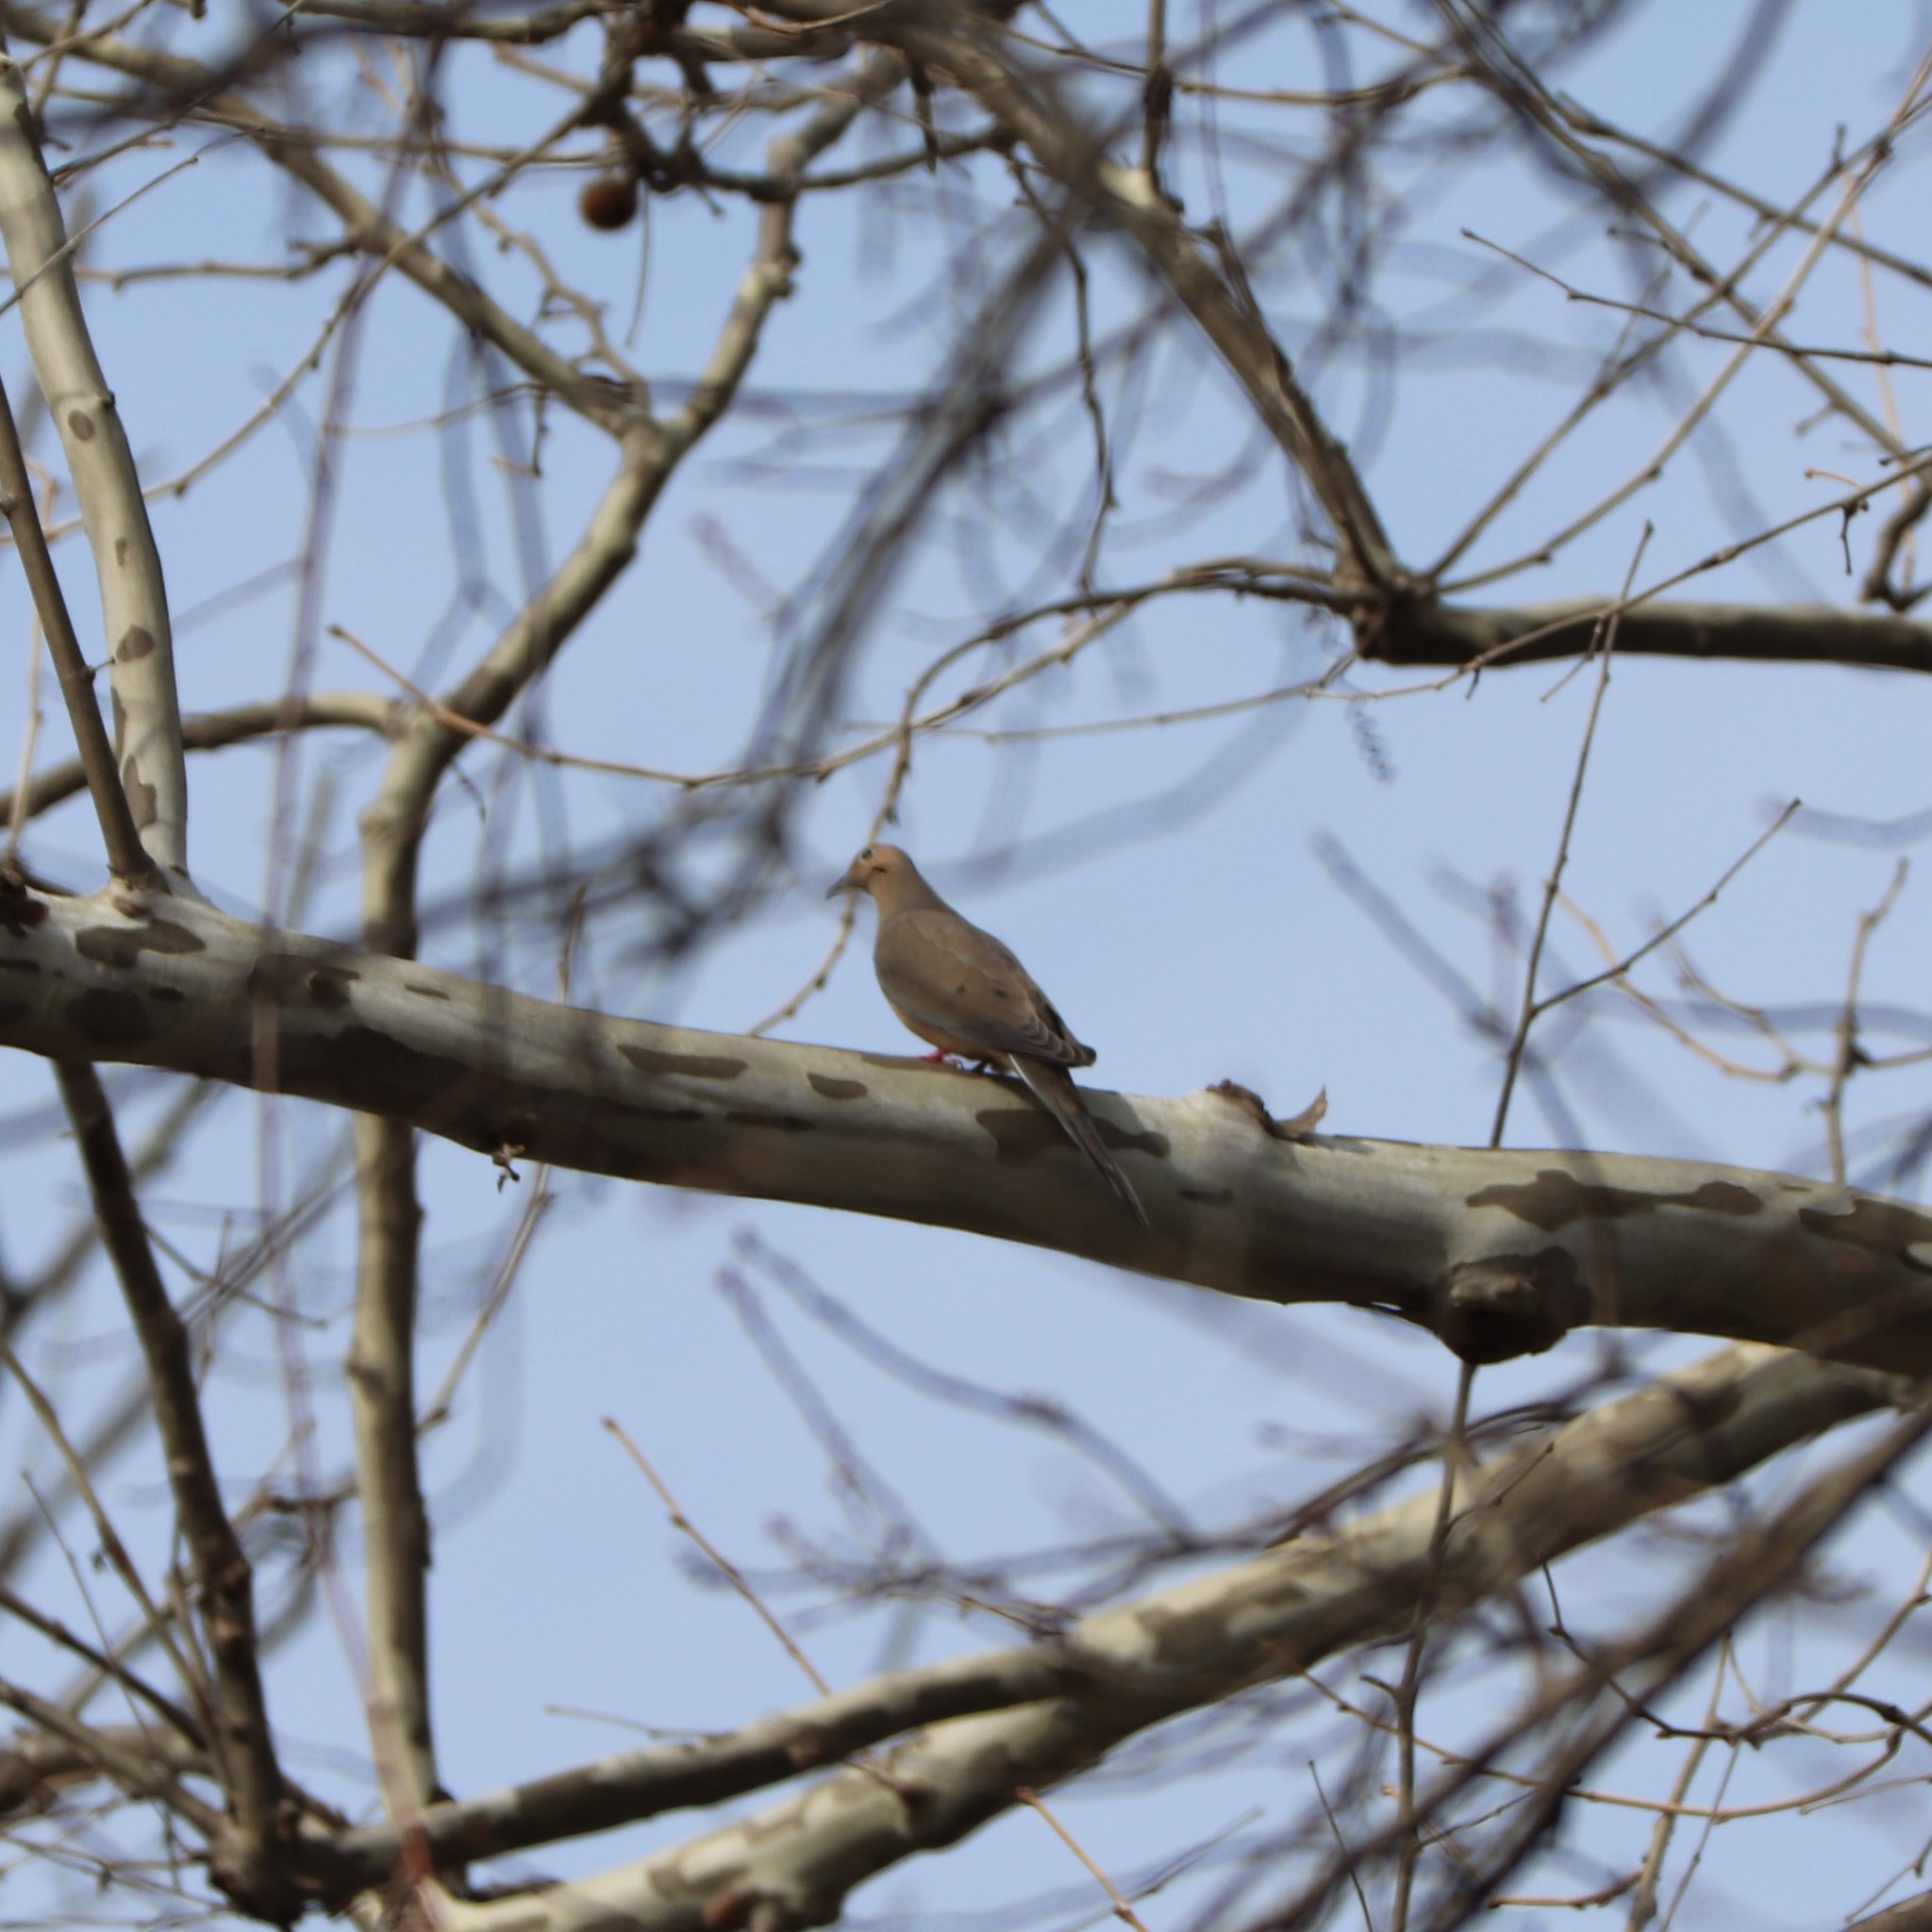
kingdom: Animalia
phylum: Chordata
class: Aves
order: Columbiformes
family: Columbidae
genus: Zenaida
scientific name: Zenaida macroura
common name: Mourning dove
